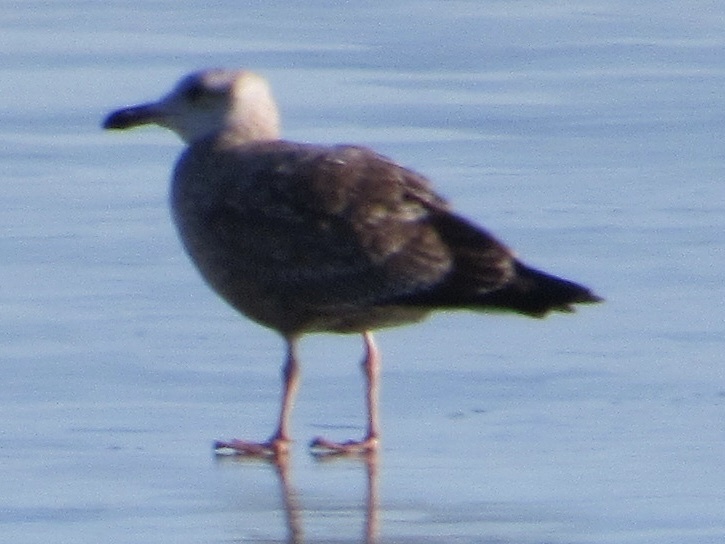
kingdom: Animalia
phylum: Chordata
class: Aves
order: Charadriiformes
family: Laridae
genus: Larus
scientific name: Larus argentatus
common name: Herring gull
